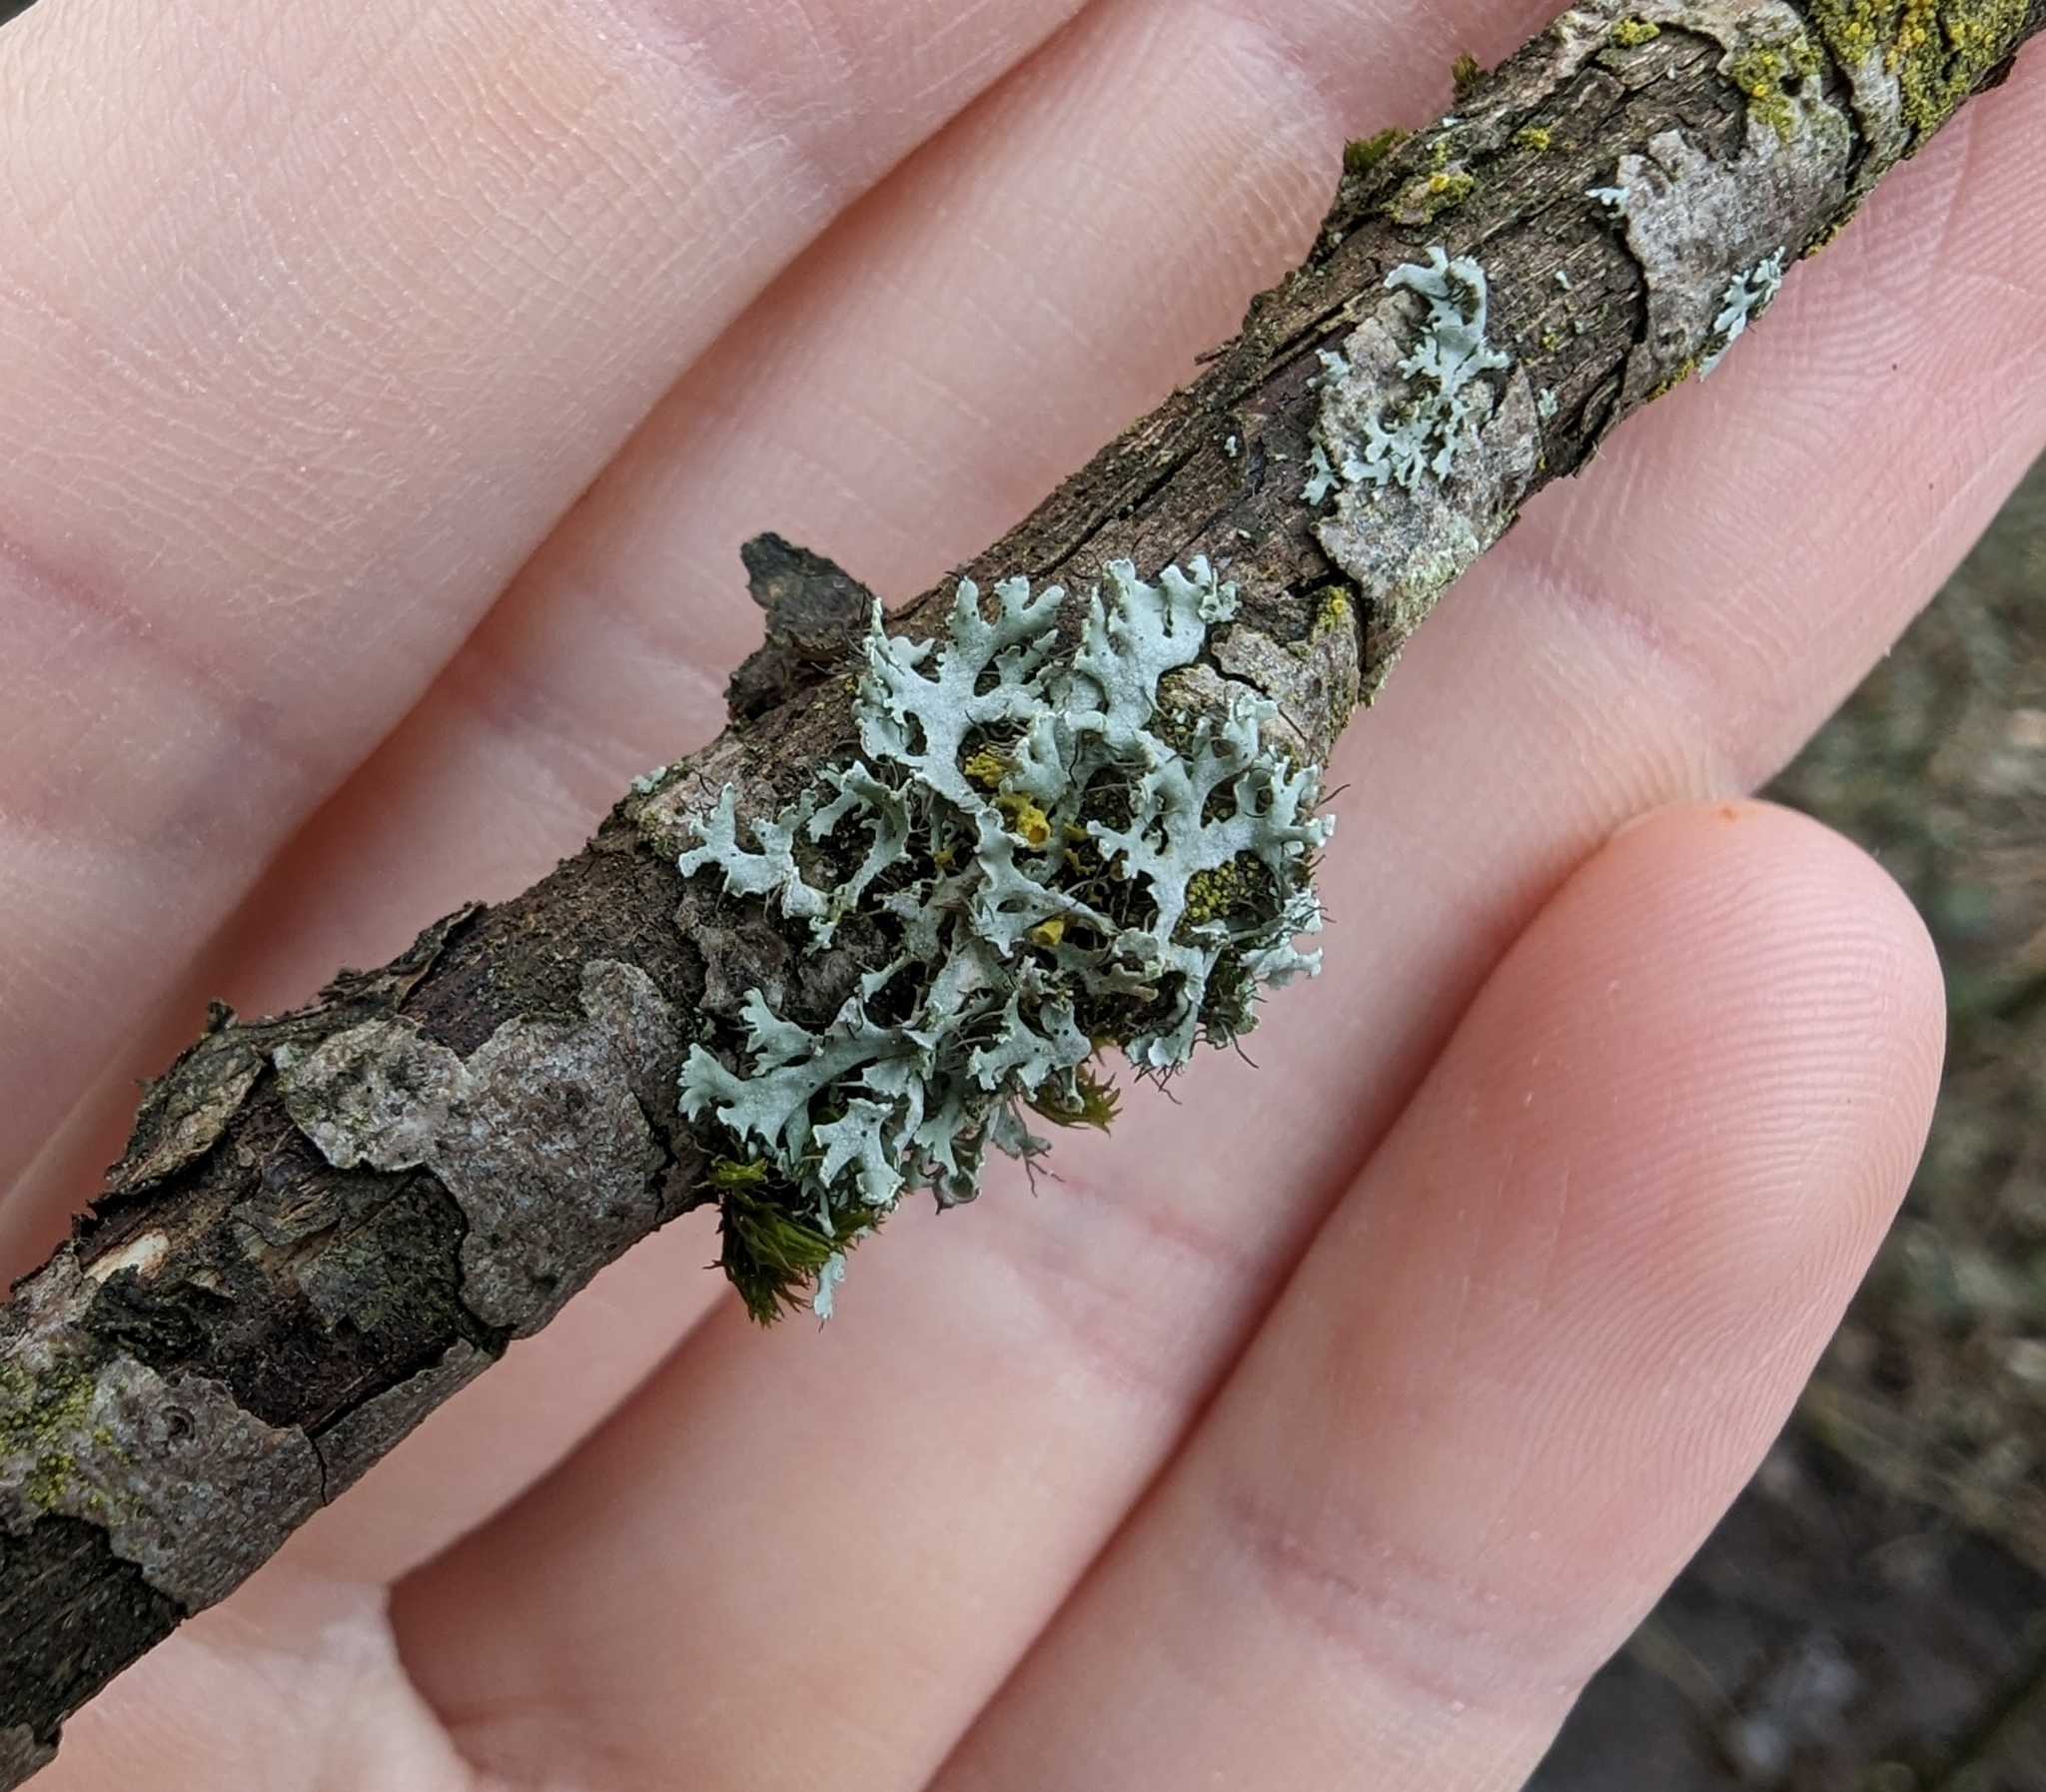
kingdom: Fungi
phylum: Ascomycota
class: Lecanoromycetes
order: Caliciales
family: Physciaceae
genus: Physcia
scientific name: Physcia tenella
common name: Fringed rosette lichen
